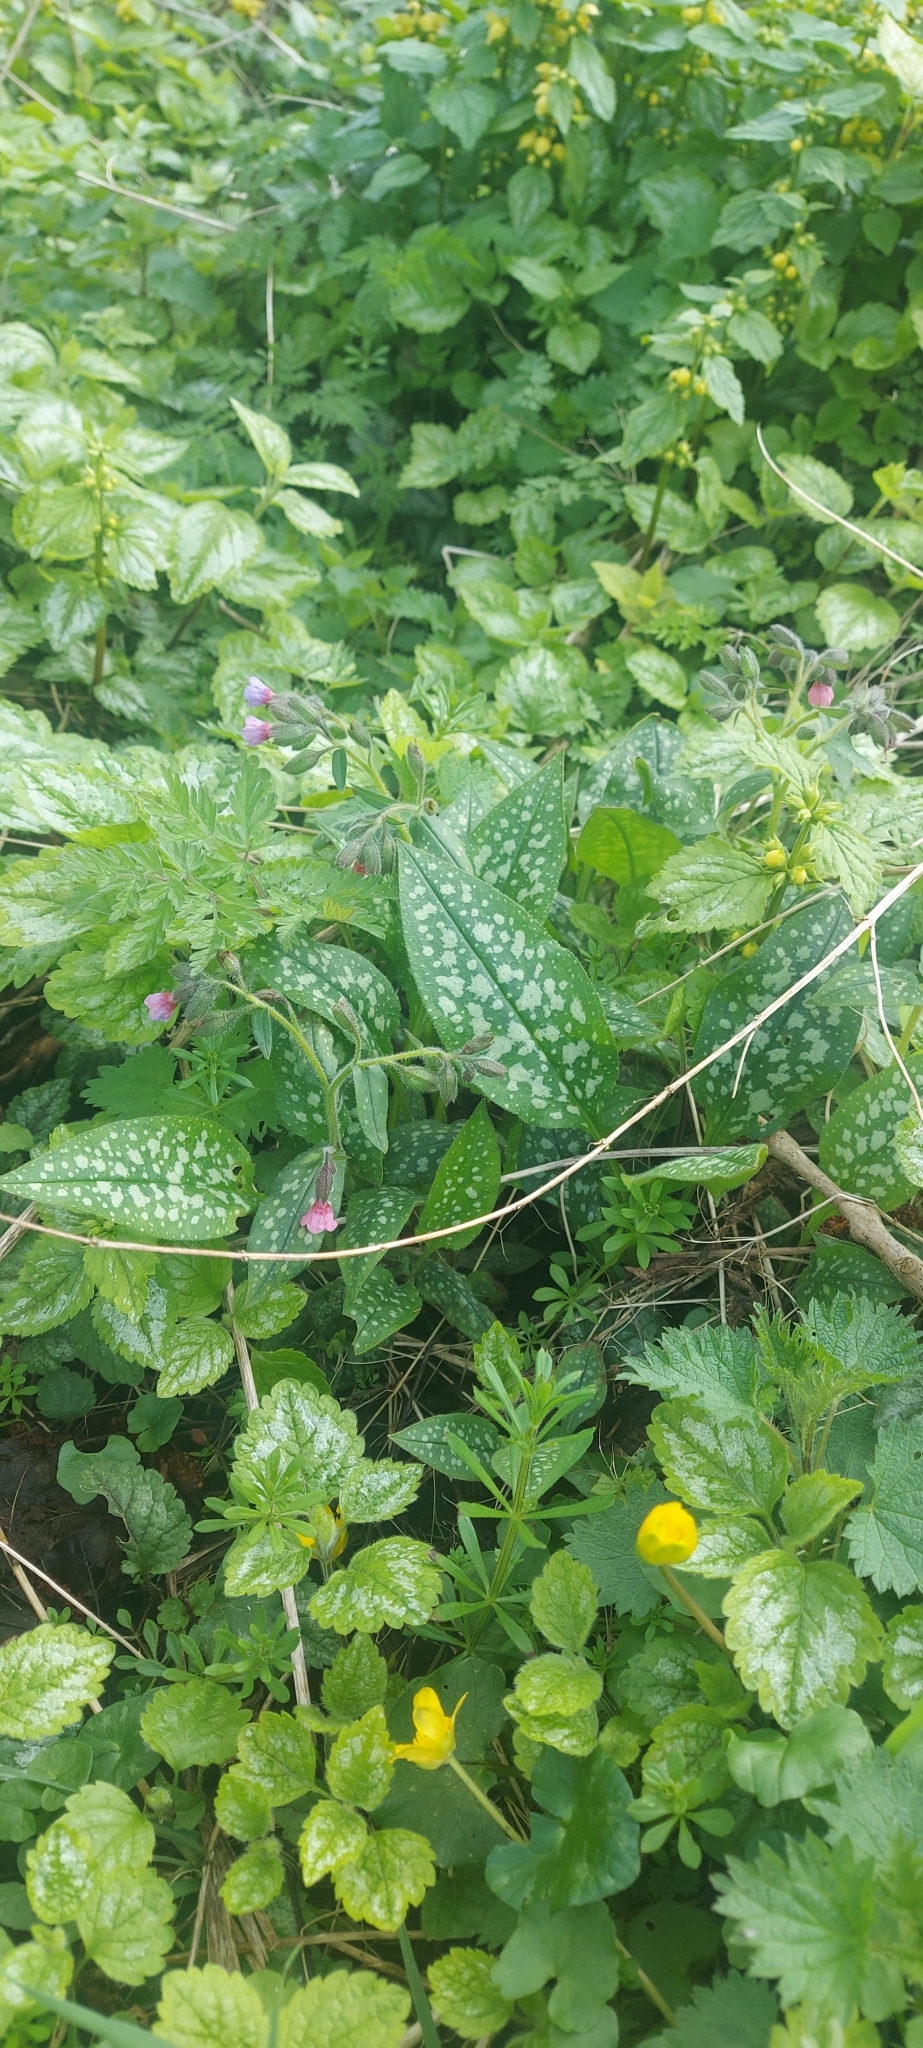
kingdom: Plantae
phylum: Tracheophyta
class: Magnoliopsida
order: Boraginales
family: Boraginaceae
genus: Pulmonaria
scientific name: Pulmonaria officinalis
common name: Lungwort
